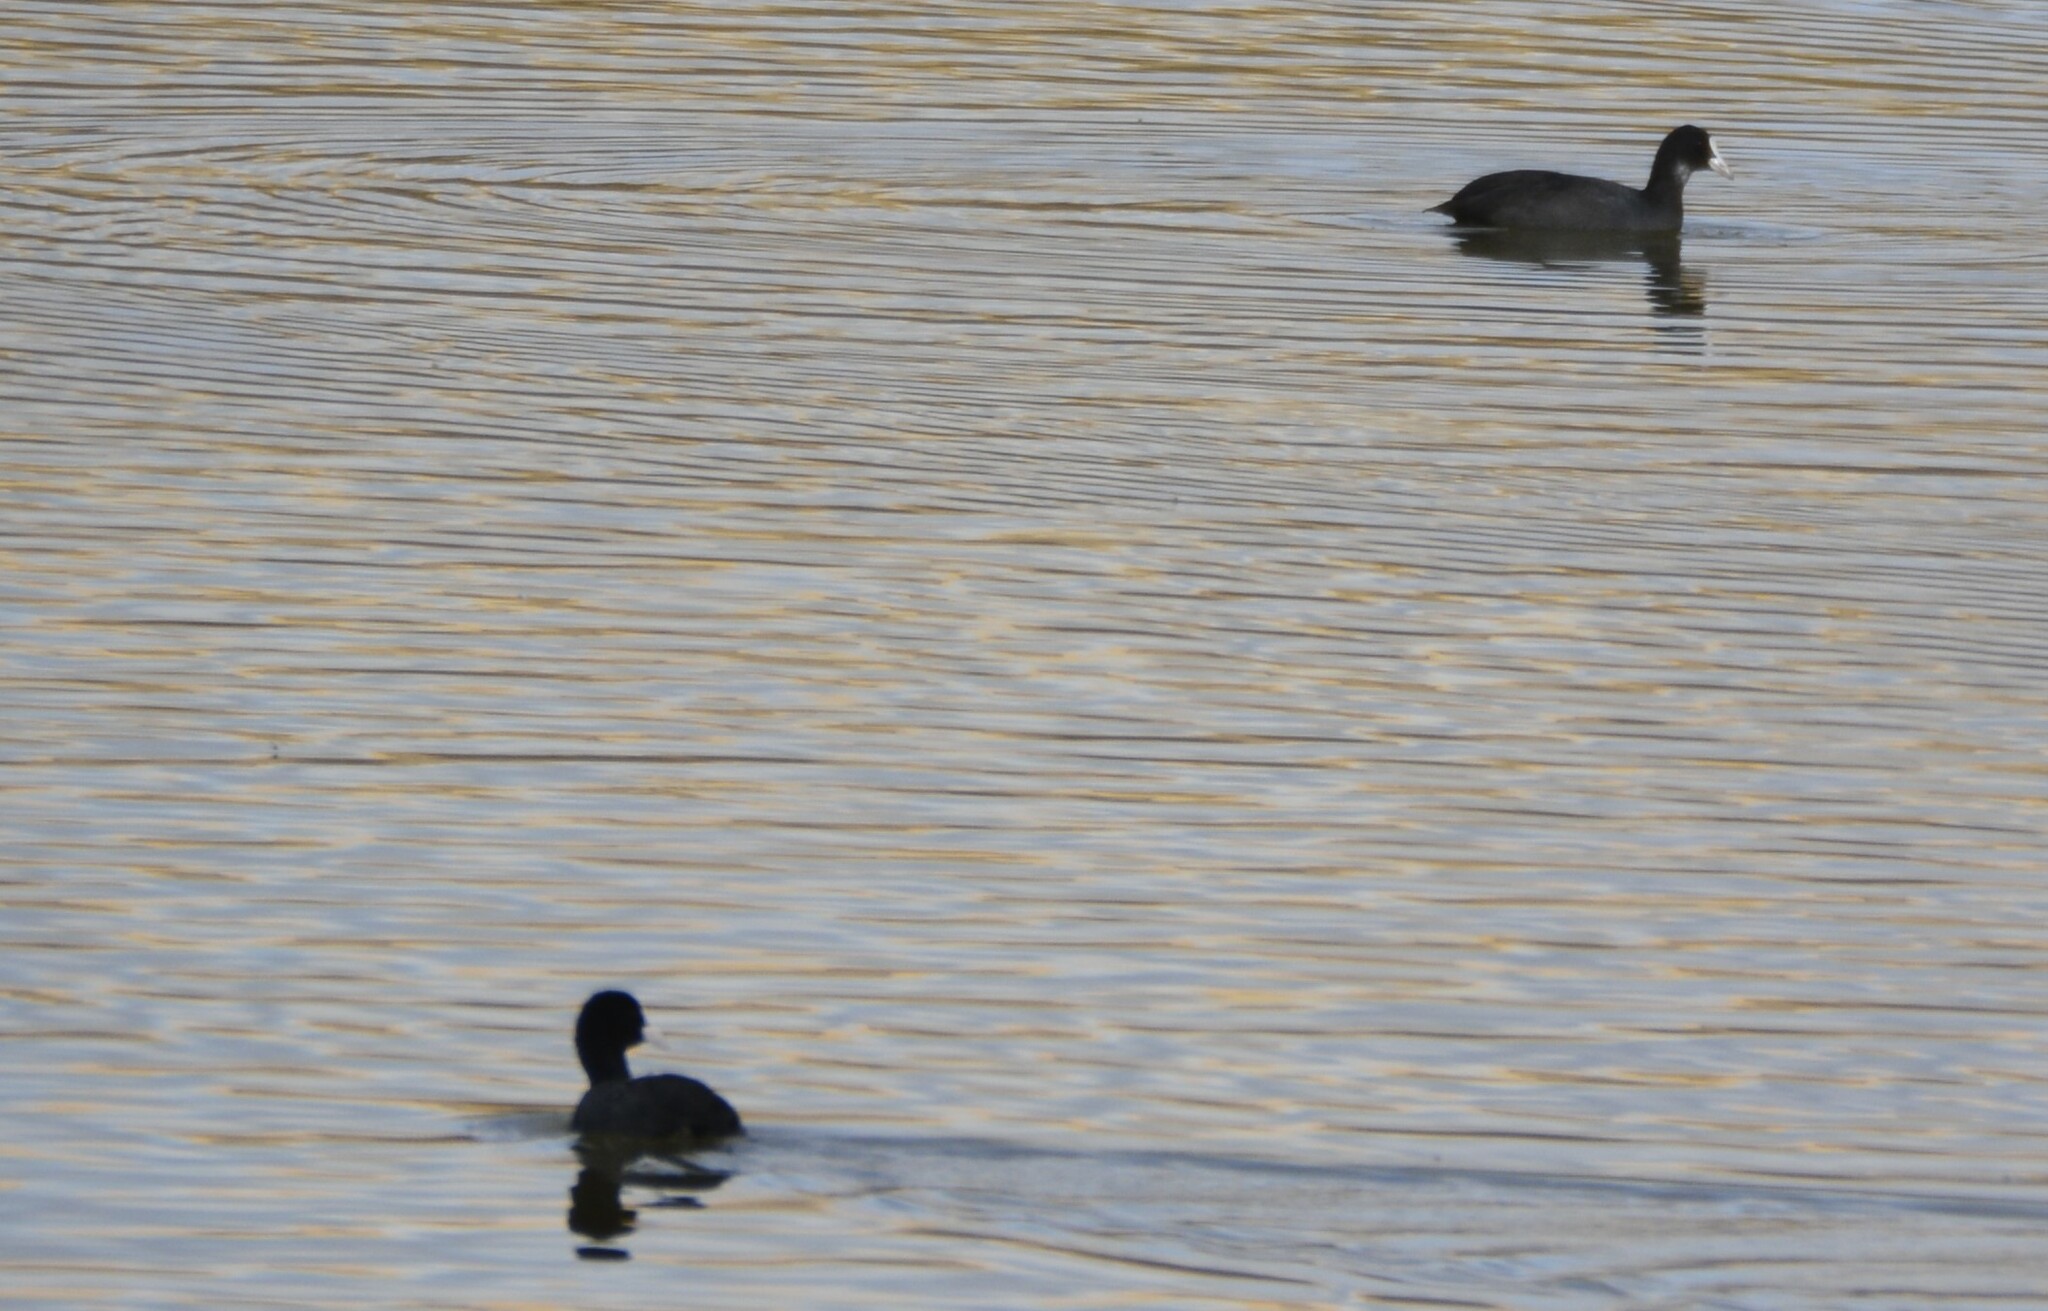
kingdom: Animalia
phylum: Chordata
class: Aves
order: Gruiformes
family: Rallidae
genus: Fulica
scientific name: Fulica atra
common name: Eurasian coot
